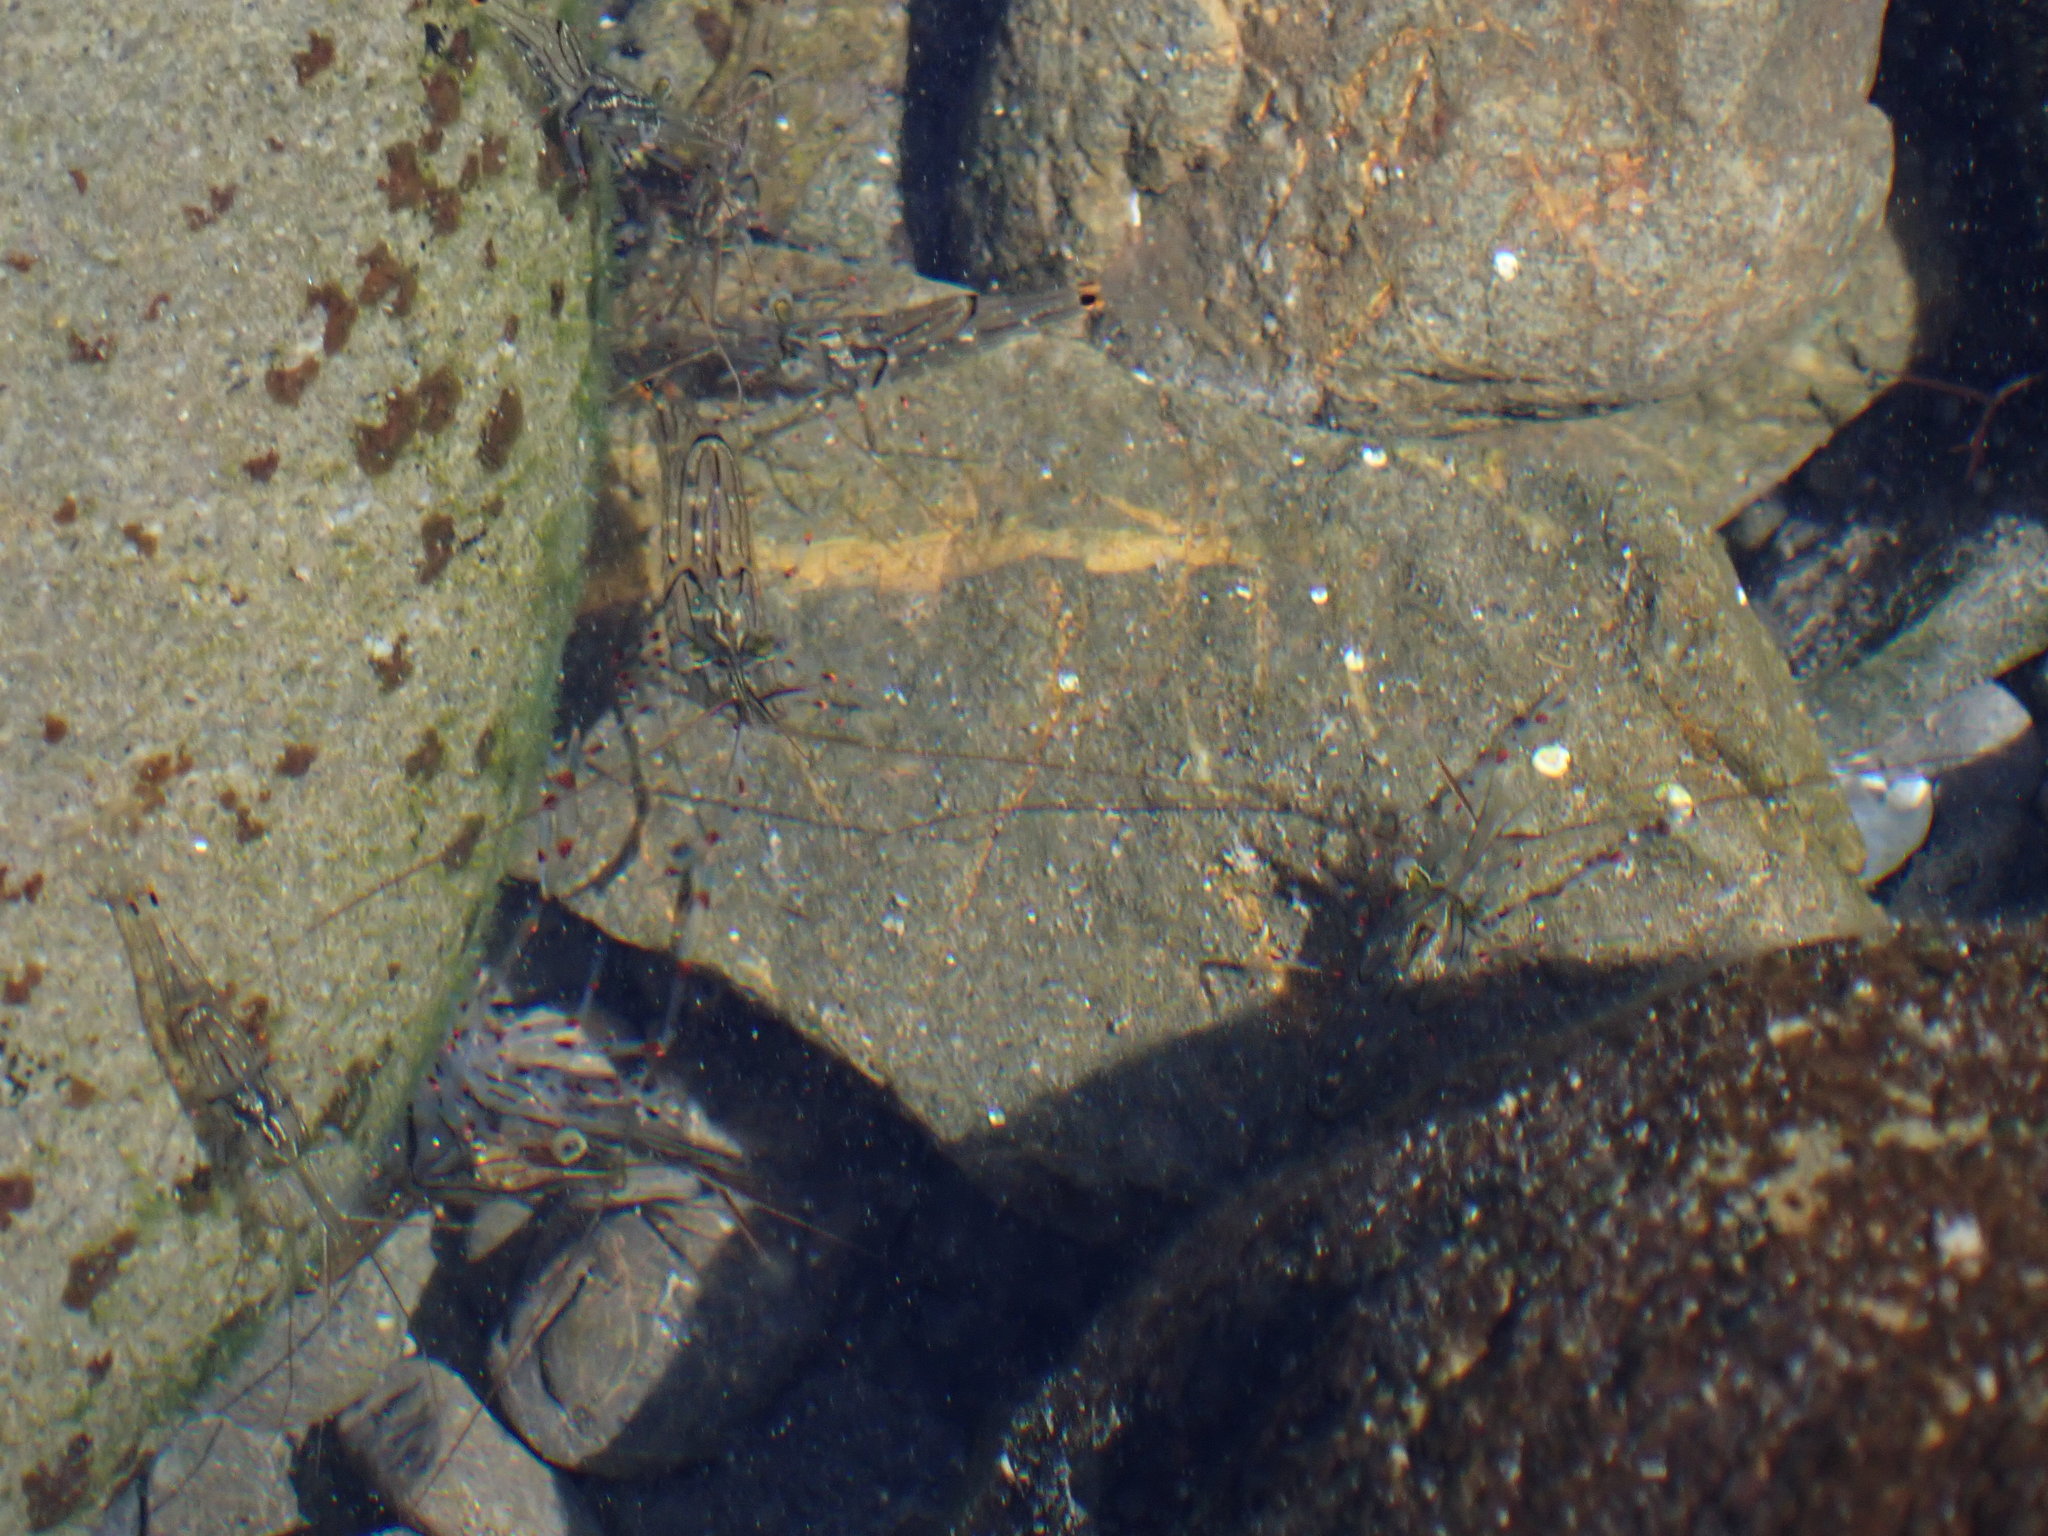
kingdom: Animalia
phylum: Arthropoda
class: Malacostraca
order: Decapoda
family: Palaemonidae
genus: Palaemon
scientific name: Palaemon affinis
